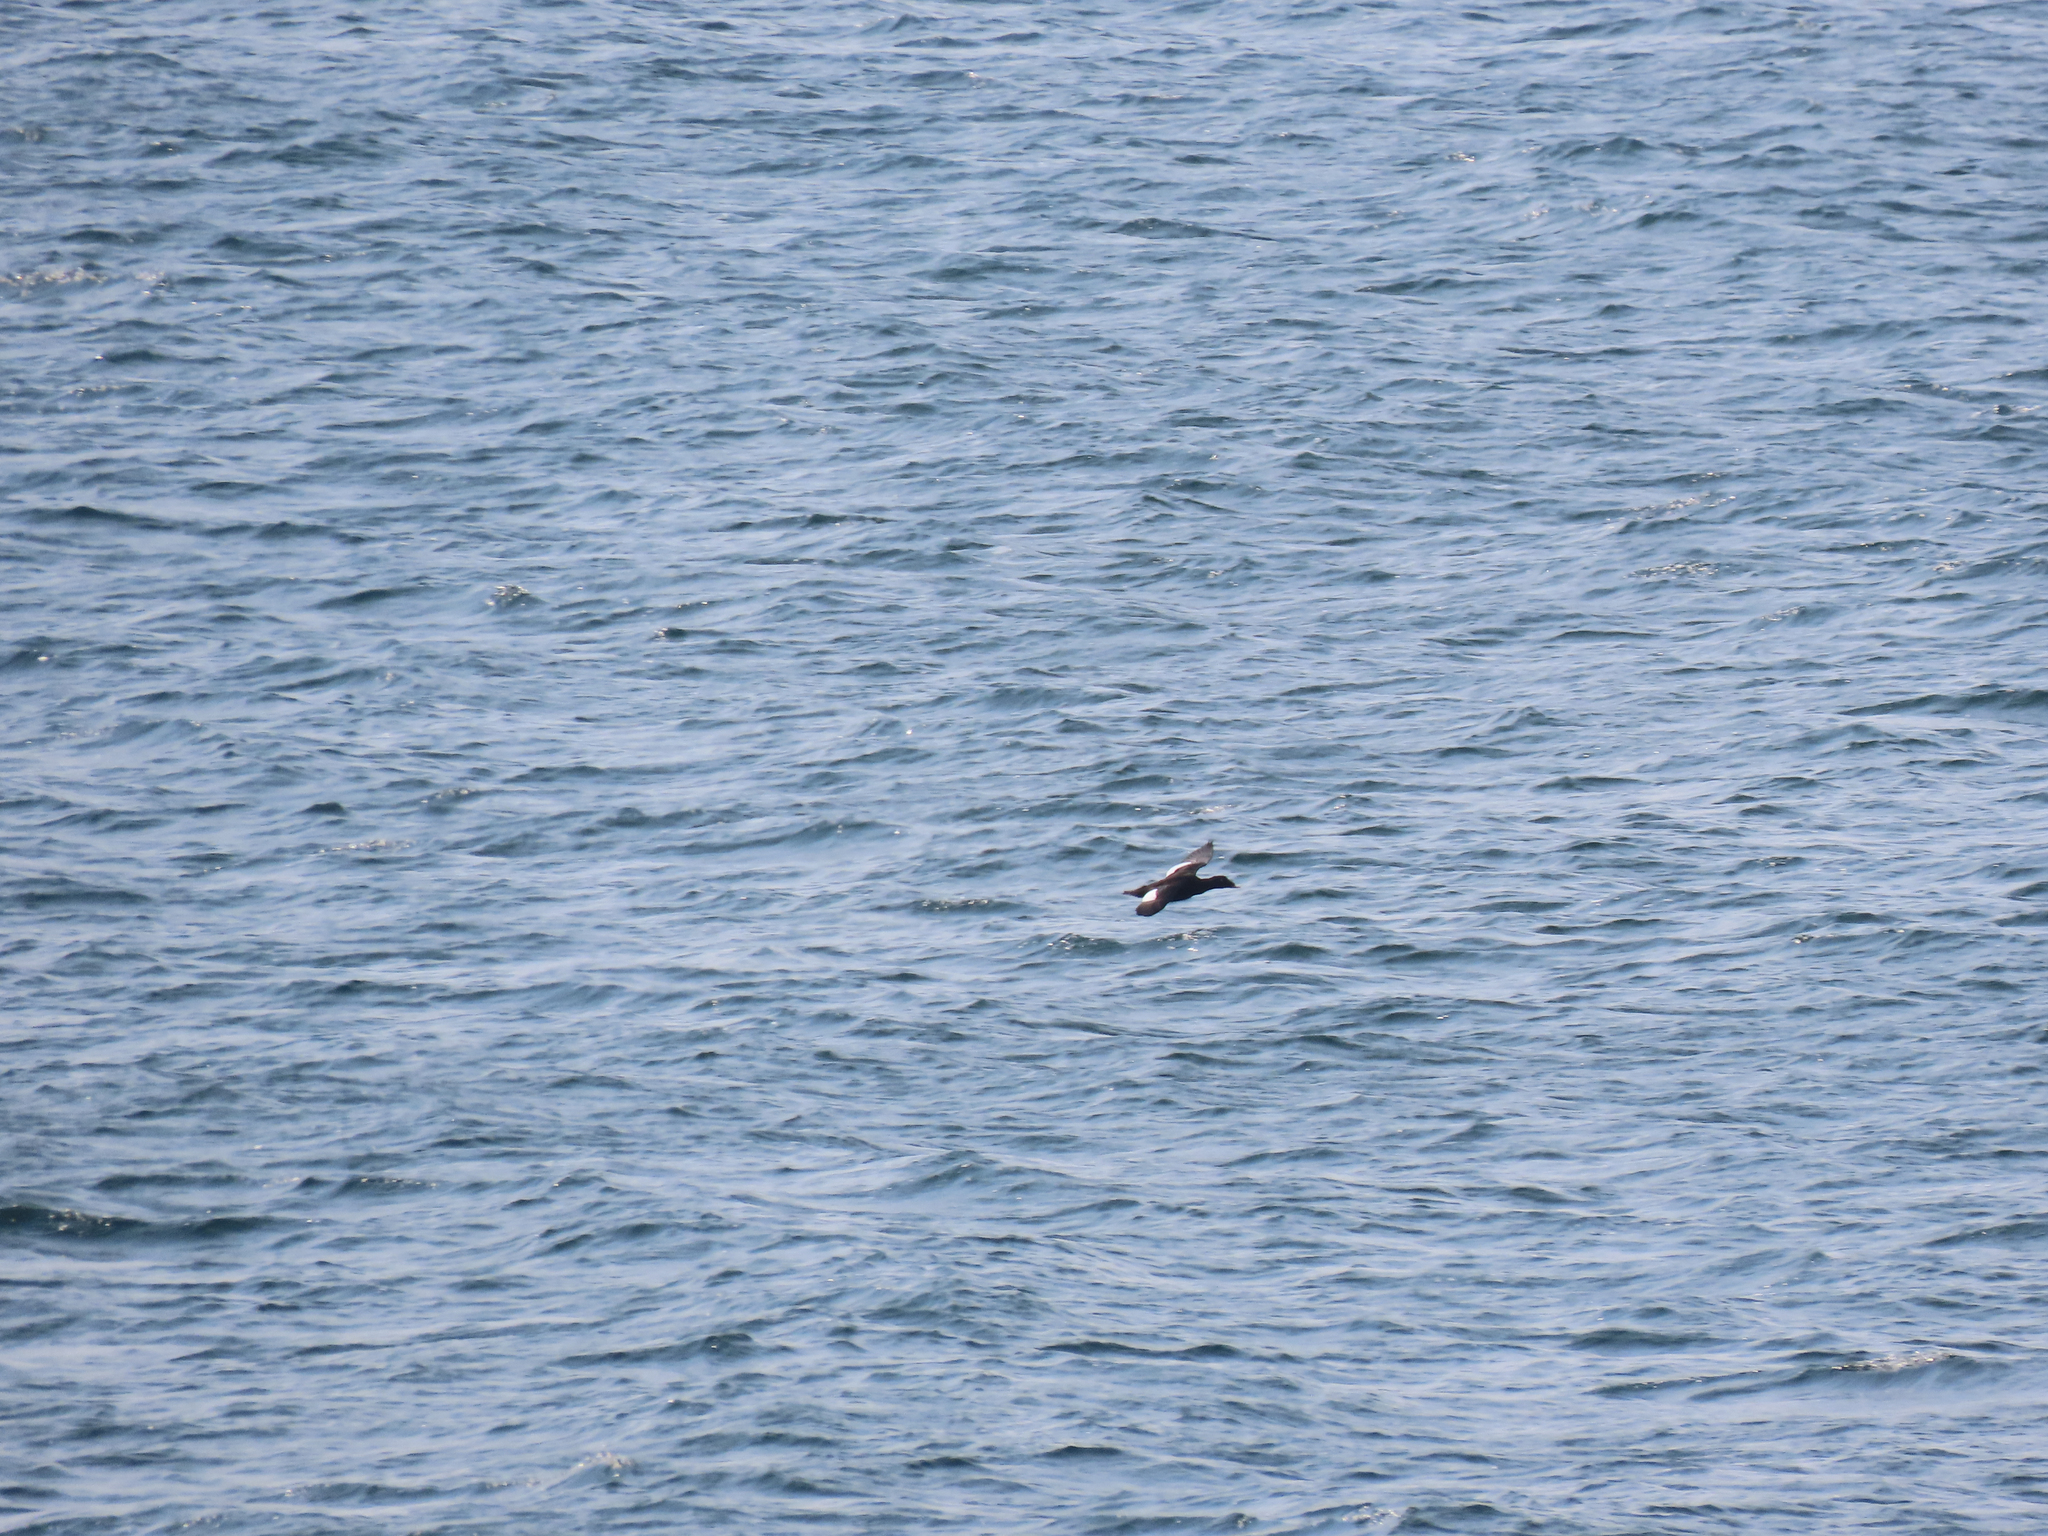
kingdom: Animalia
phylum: Chordata
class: Aves
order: Anseriformes
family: Anatidae
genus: Melanitta
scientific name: Melanitta deglandi
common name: White-winged scoter
